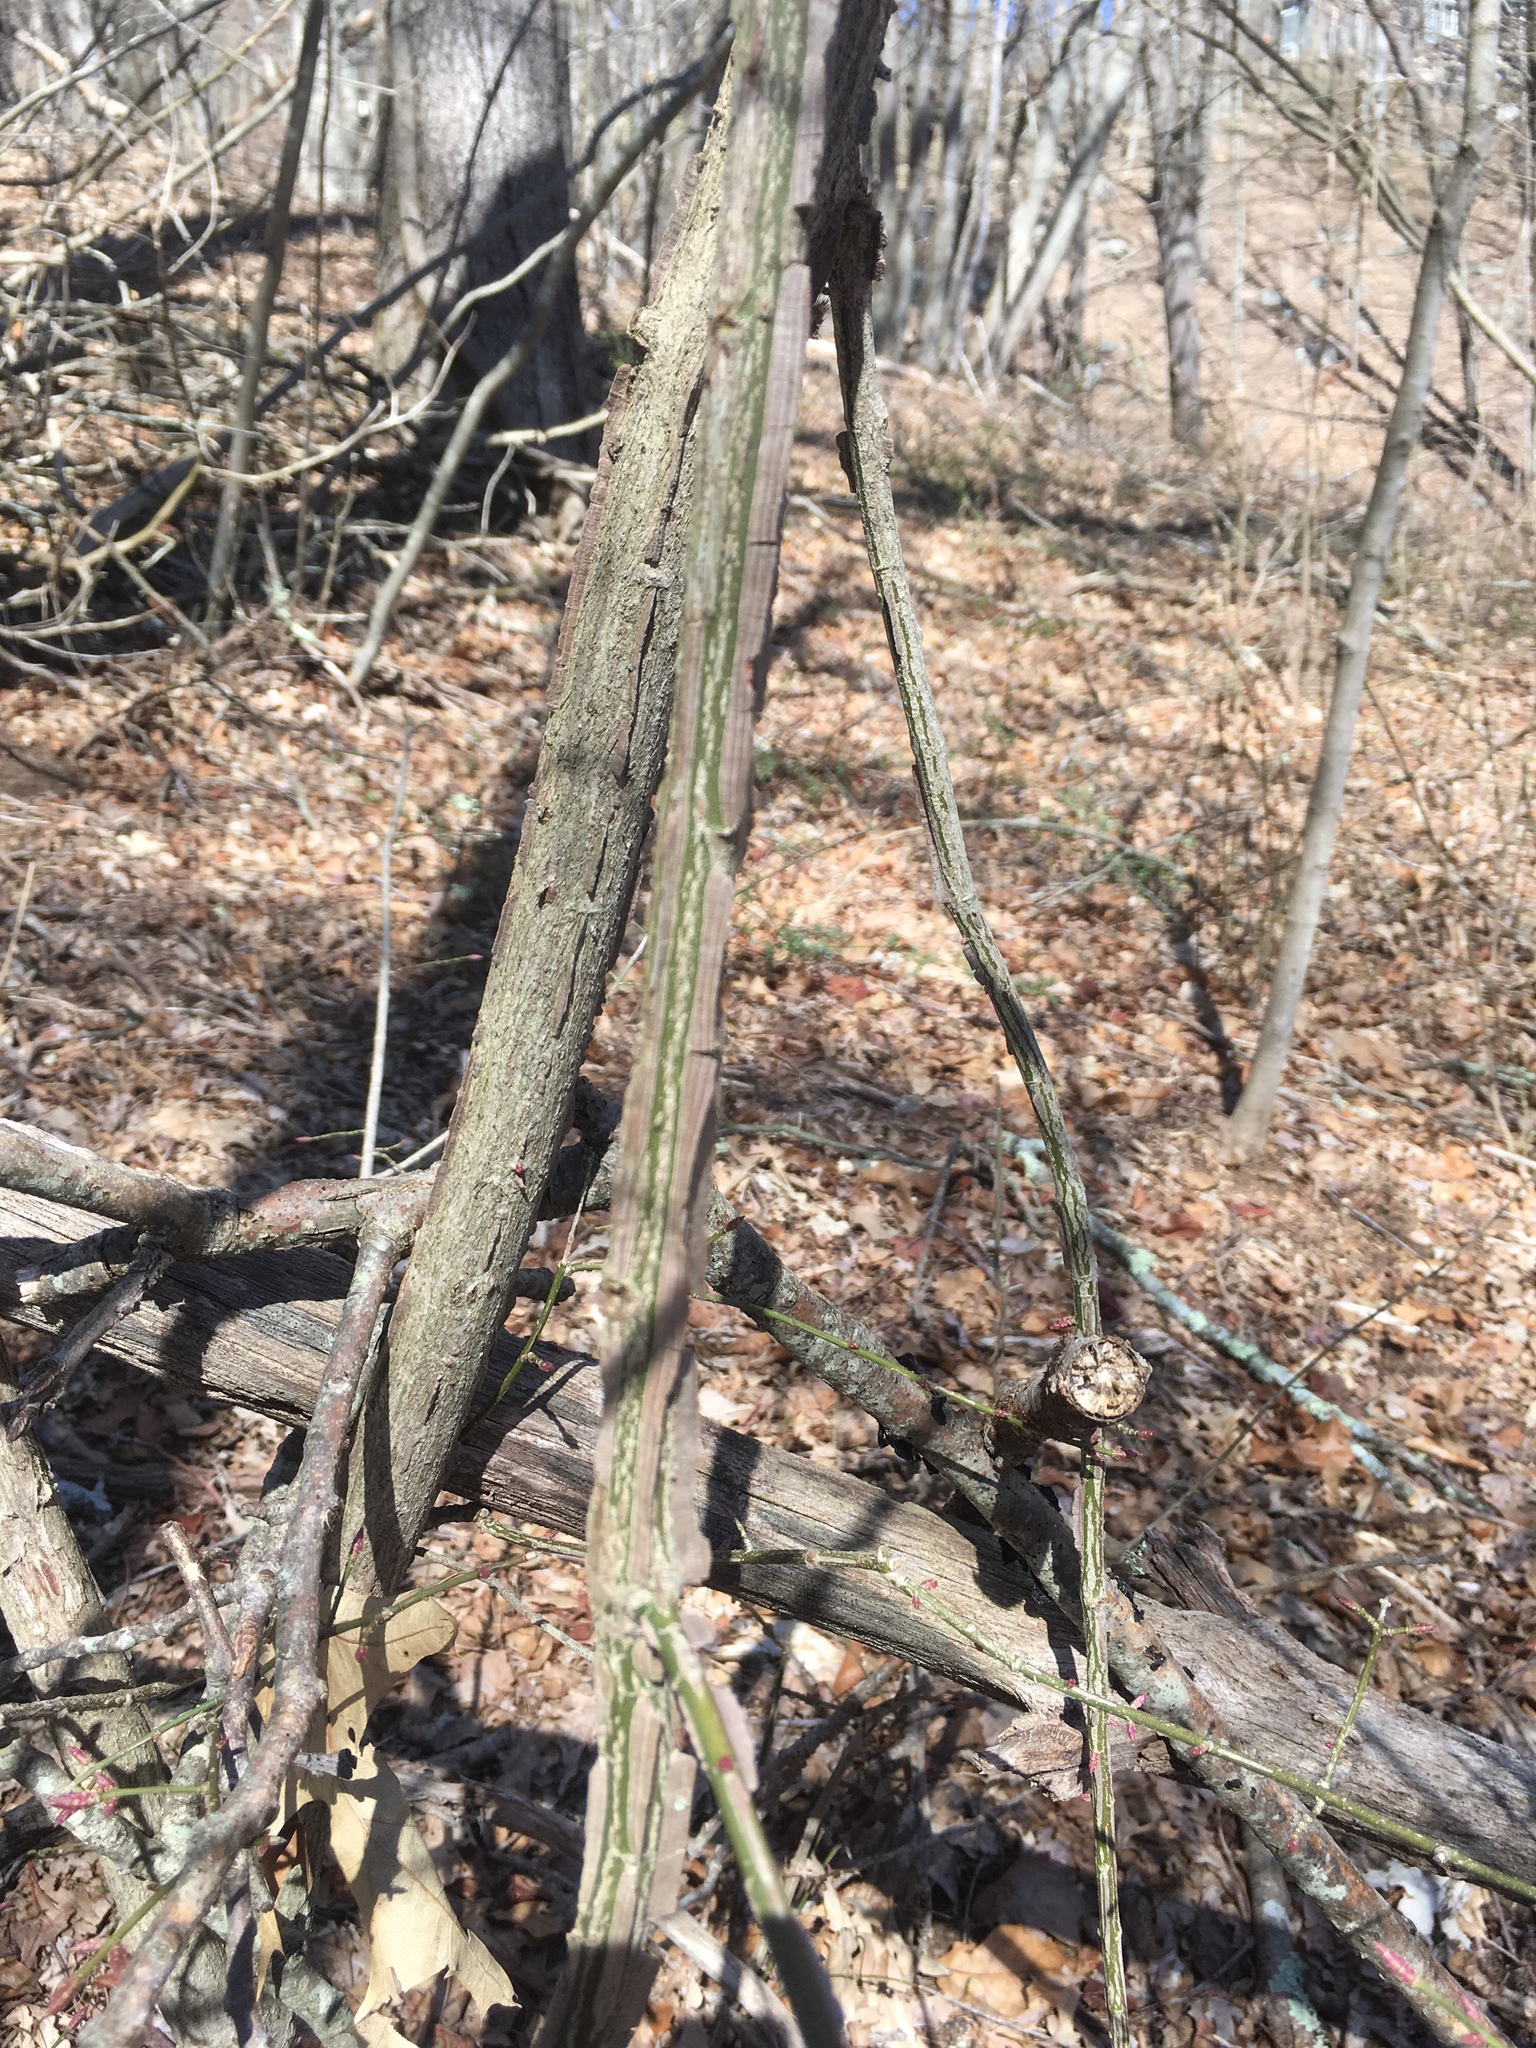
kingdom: Plantae
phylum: Tracheophyta
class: Magnoliopsida
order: Celastrales
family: Celastraceae
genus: Euonymus
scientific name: Euonymus alatus
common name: Winged euonymus
